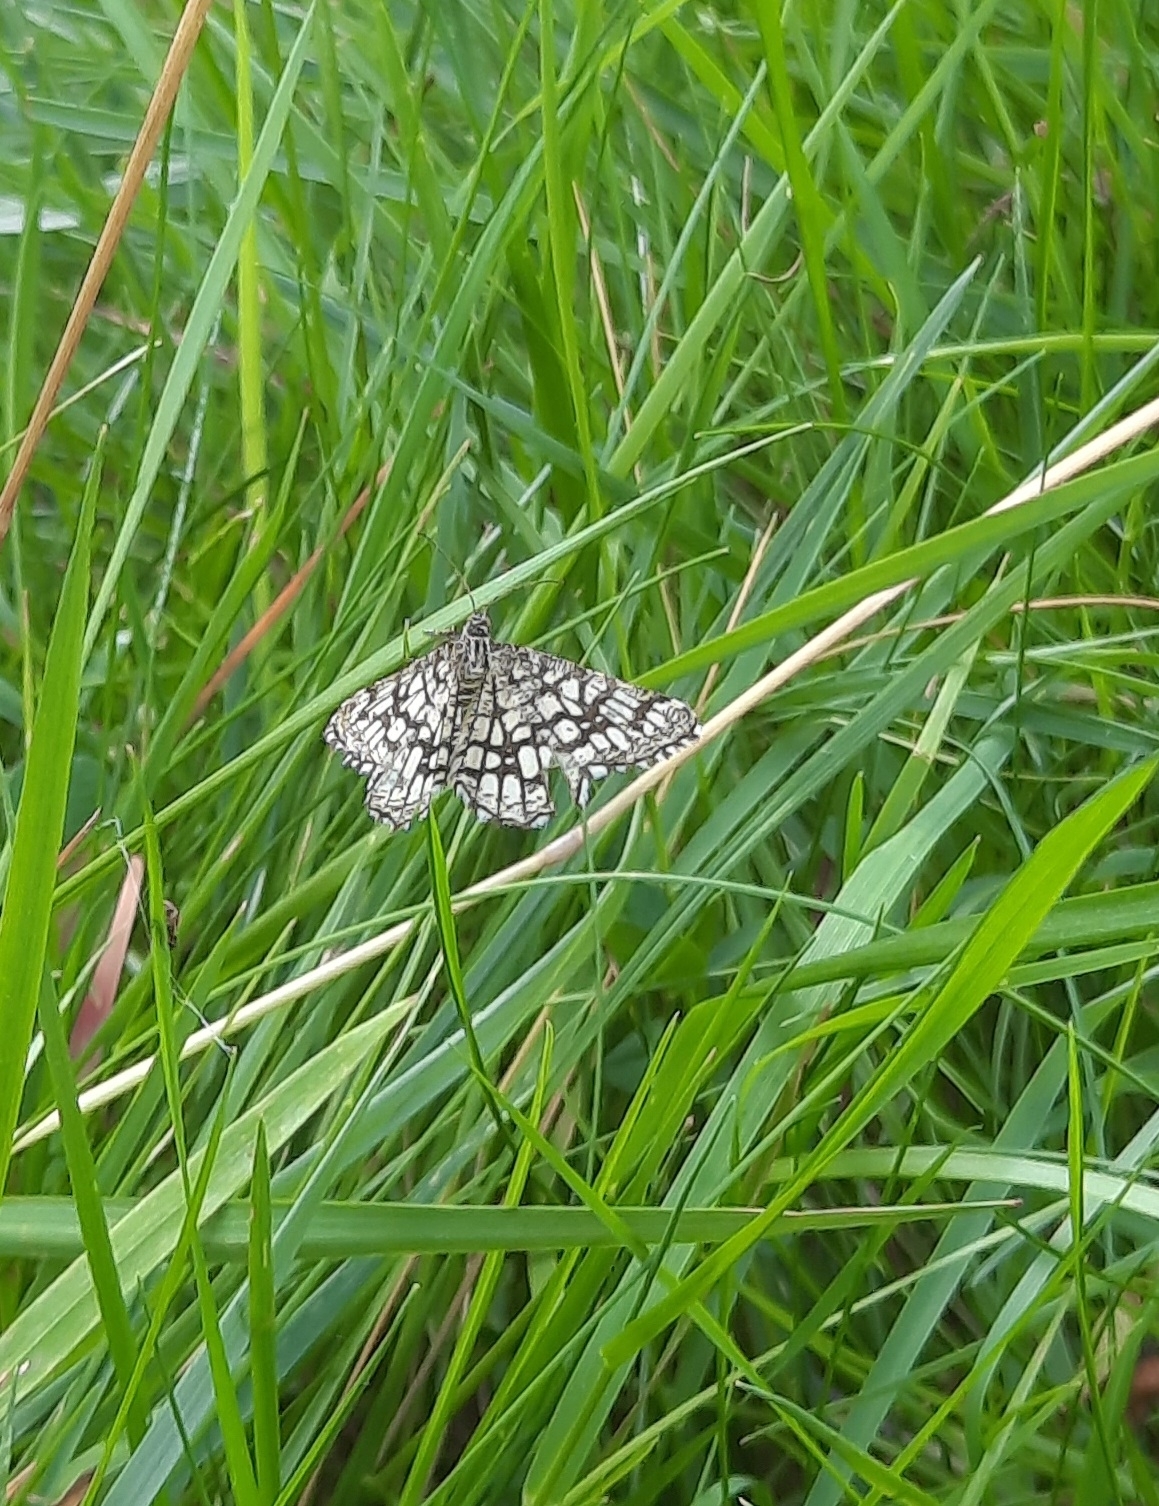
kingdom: Animalia
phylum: Arthropoda
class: Insecta
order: Lepidoptera
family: Geometridae
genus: Chiasmia
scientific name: Chiasmia clathrata
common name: Latticed heath
